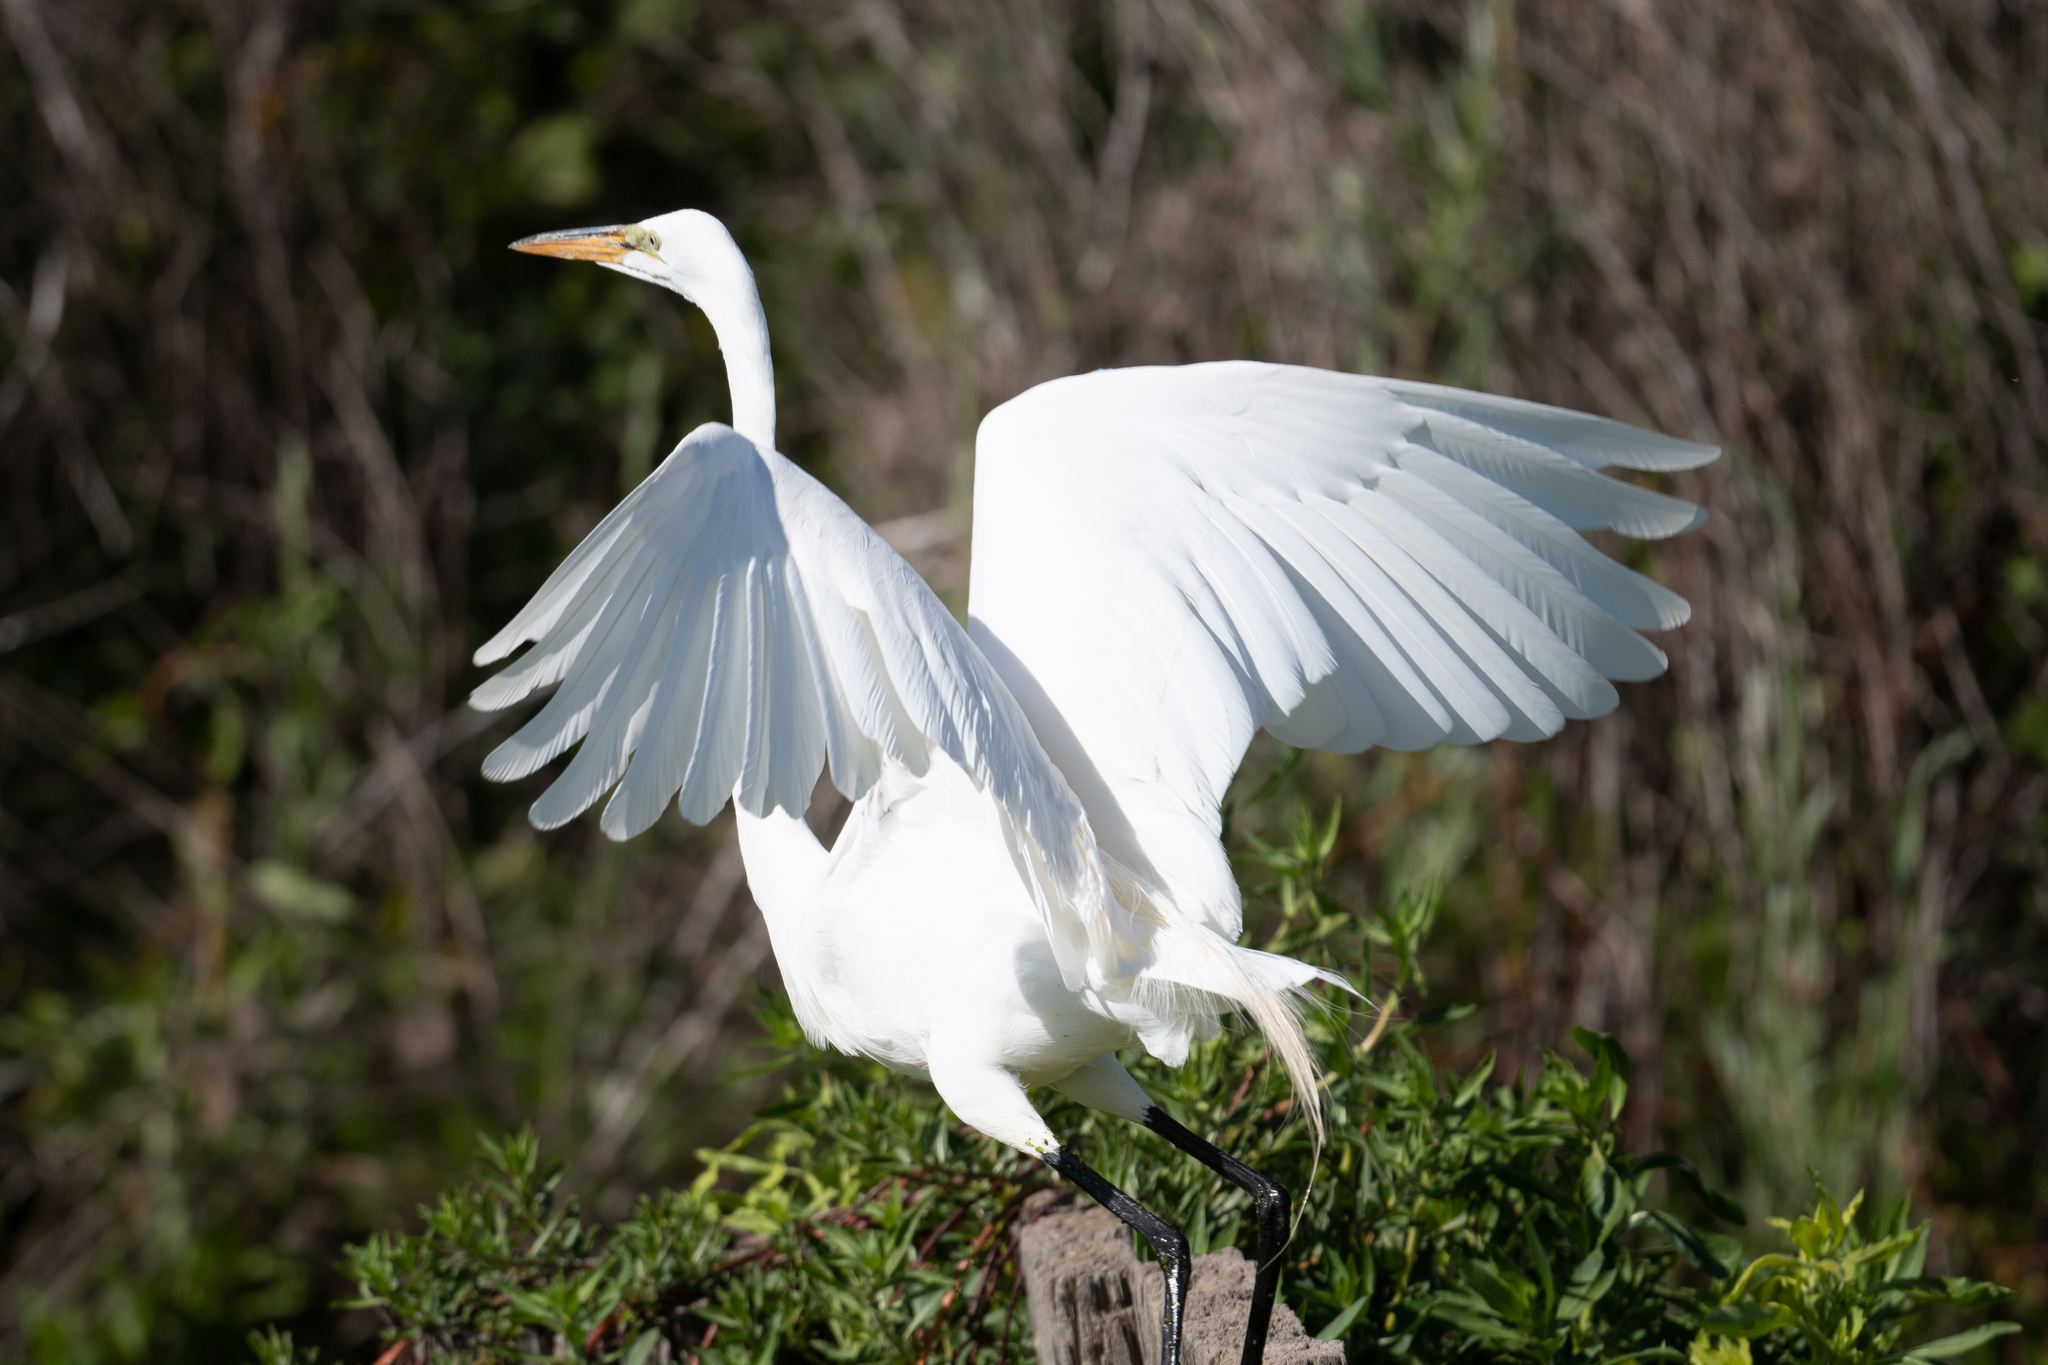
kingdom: Animalia
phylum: Chordata
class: Aves
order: Pelecaniformes
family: Ardeidae
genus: Ardea
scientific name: Ardea alba
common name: Great egret
